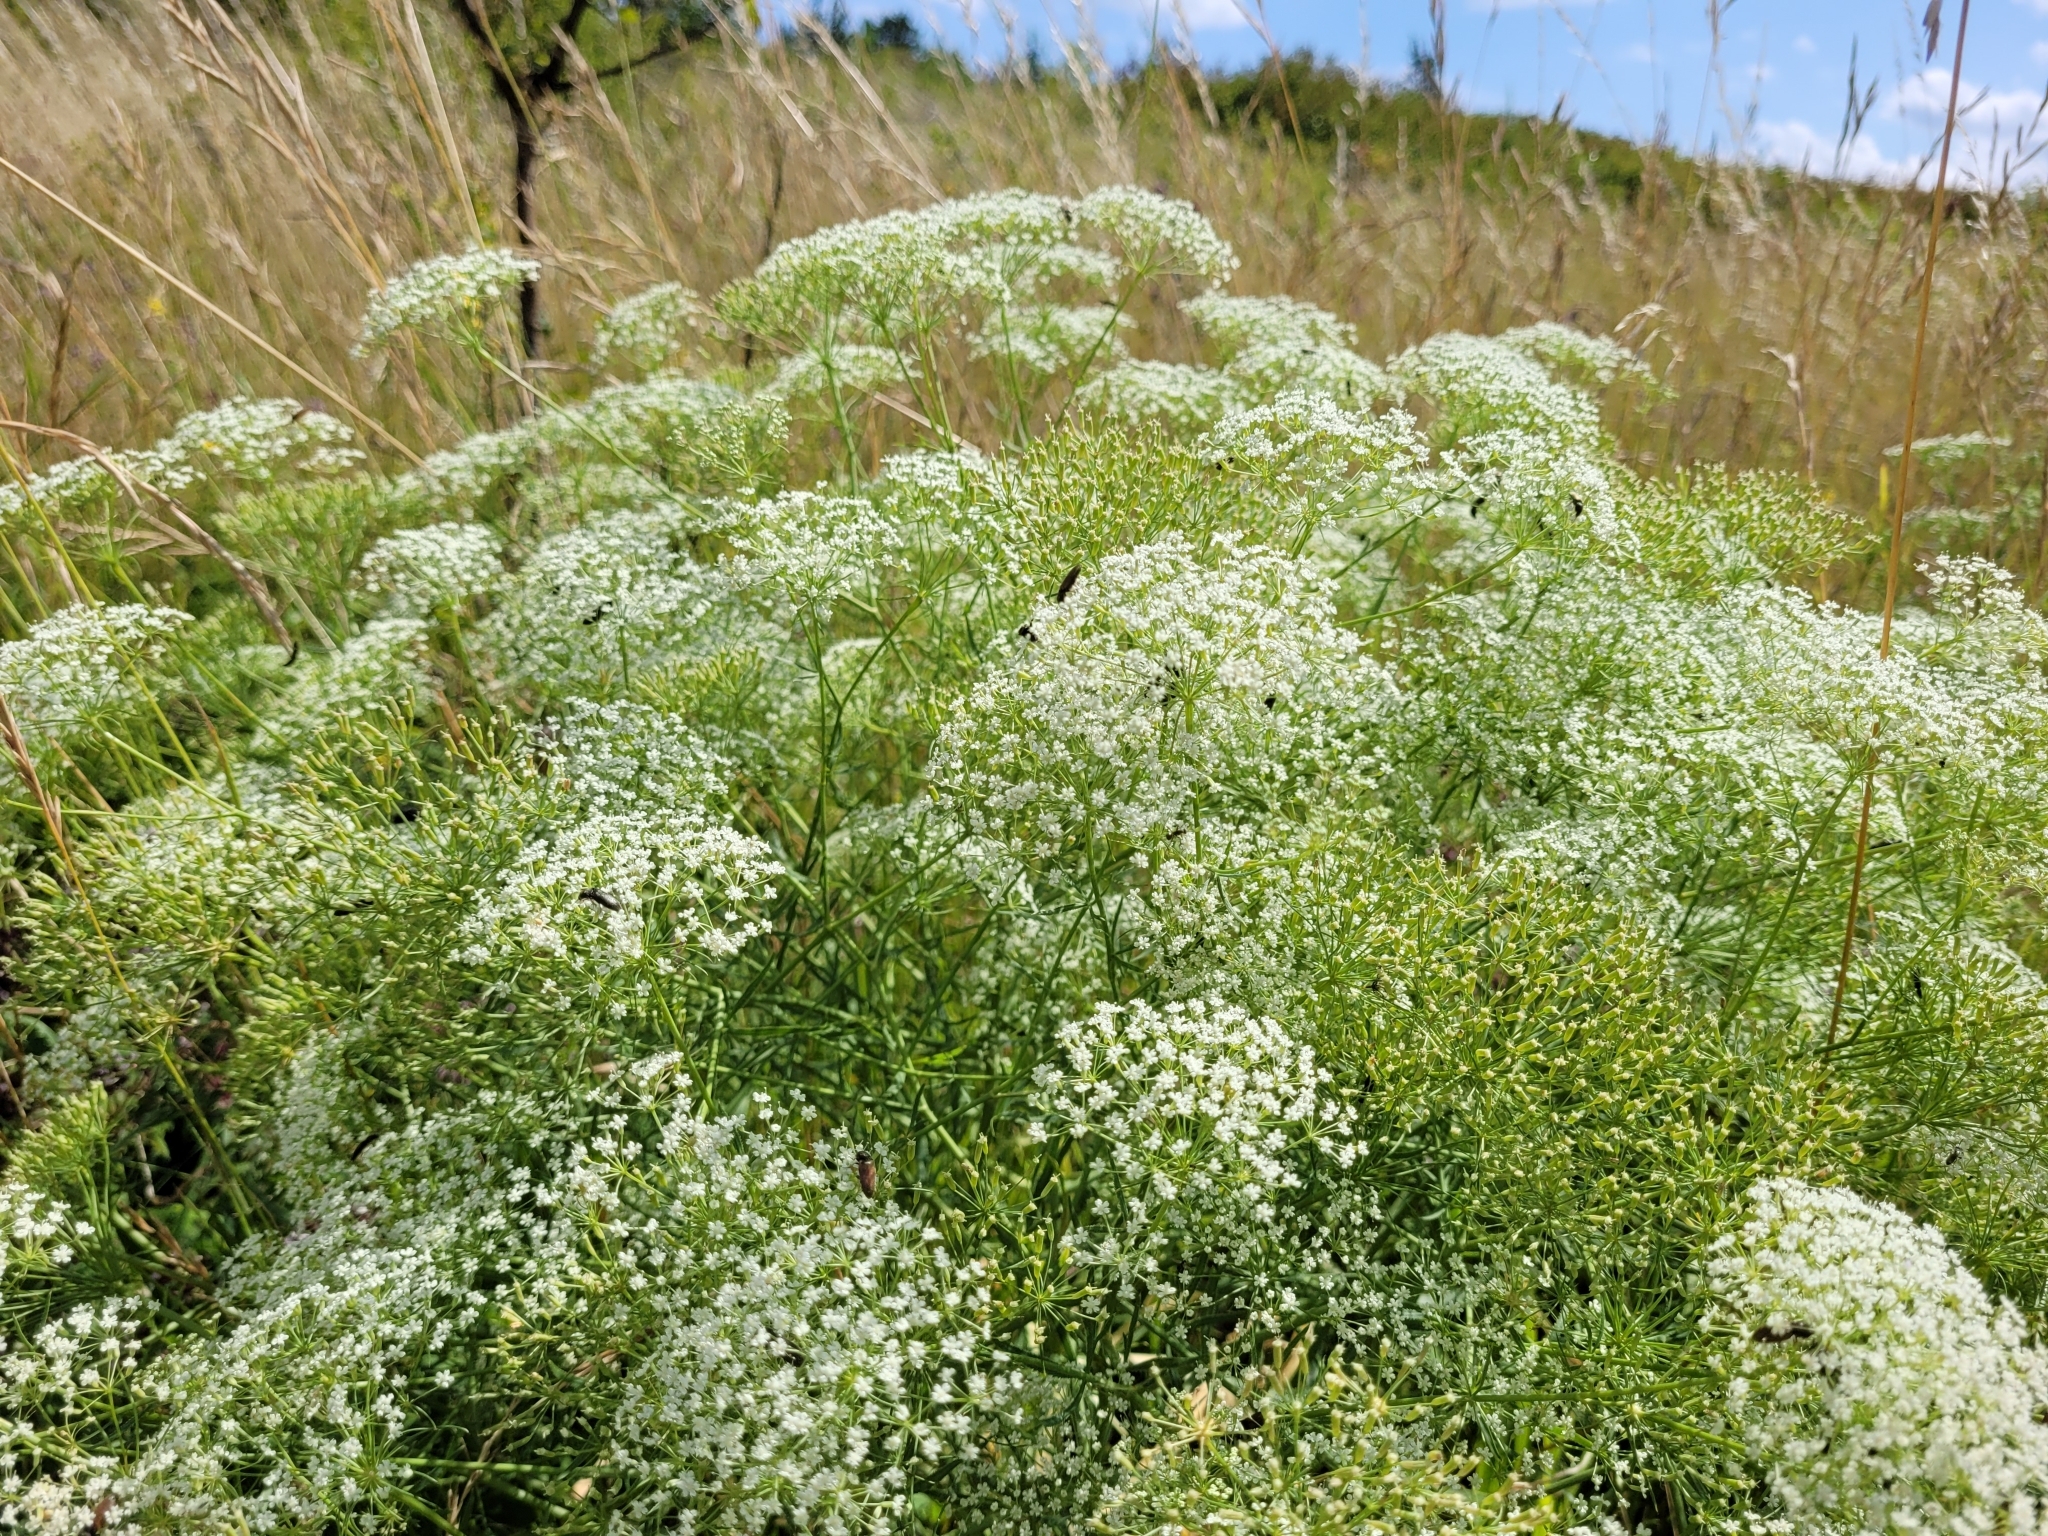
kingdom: Plantae
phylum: Tracheophyta
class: Magnoliopsida
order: Apiales
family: Apiaceae
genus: Falcaria
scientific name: Falcaria vulgaris
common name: Longleaf
